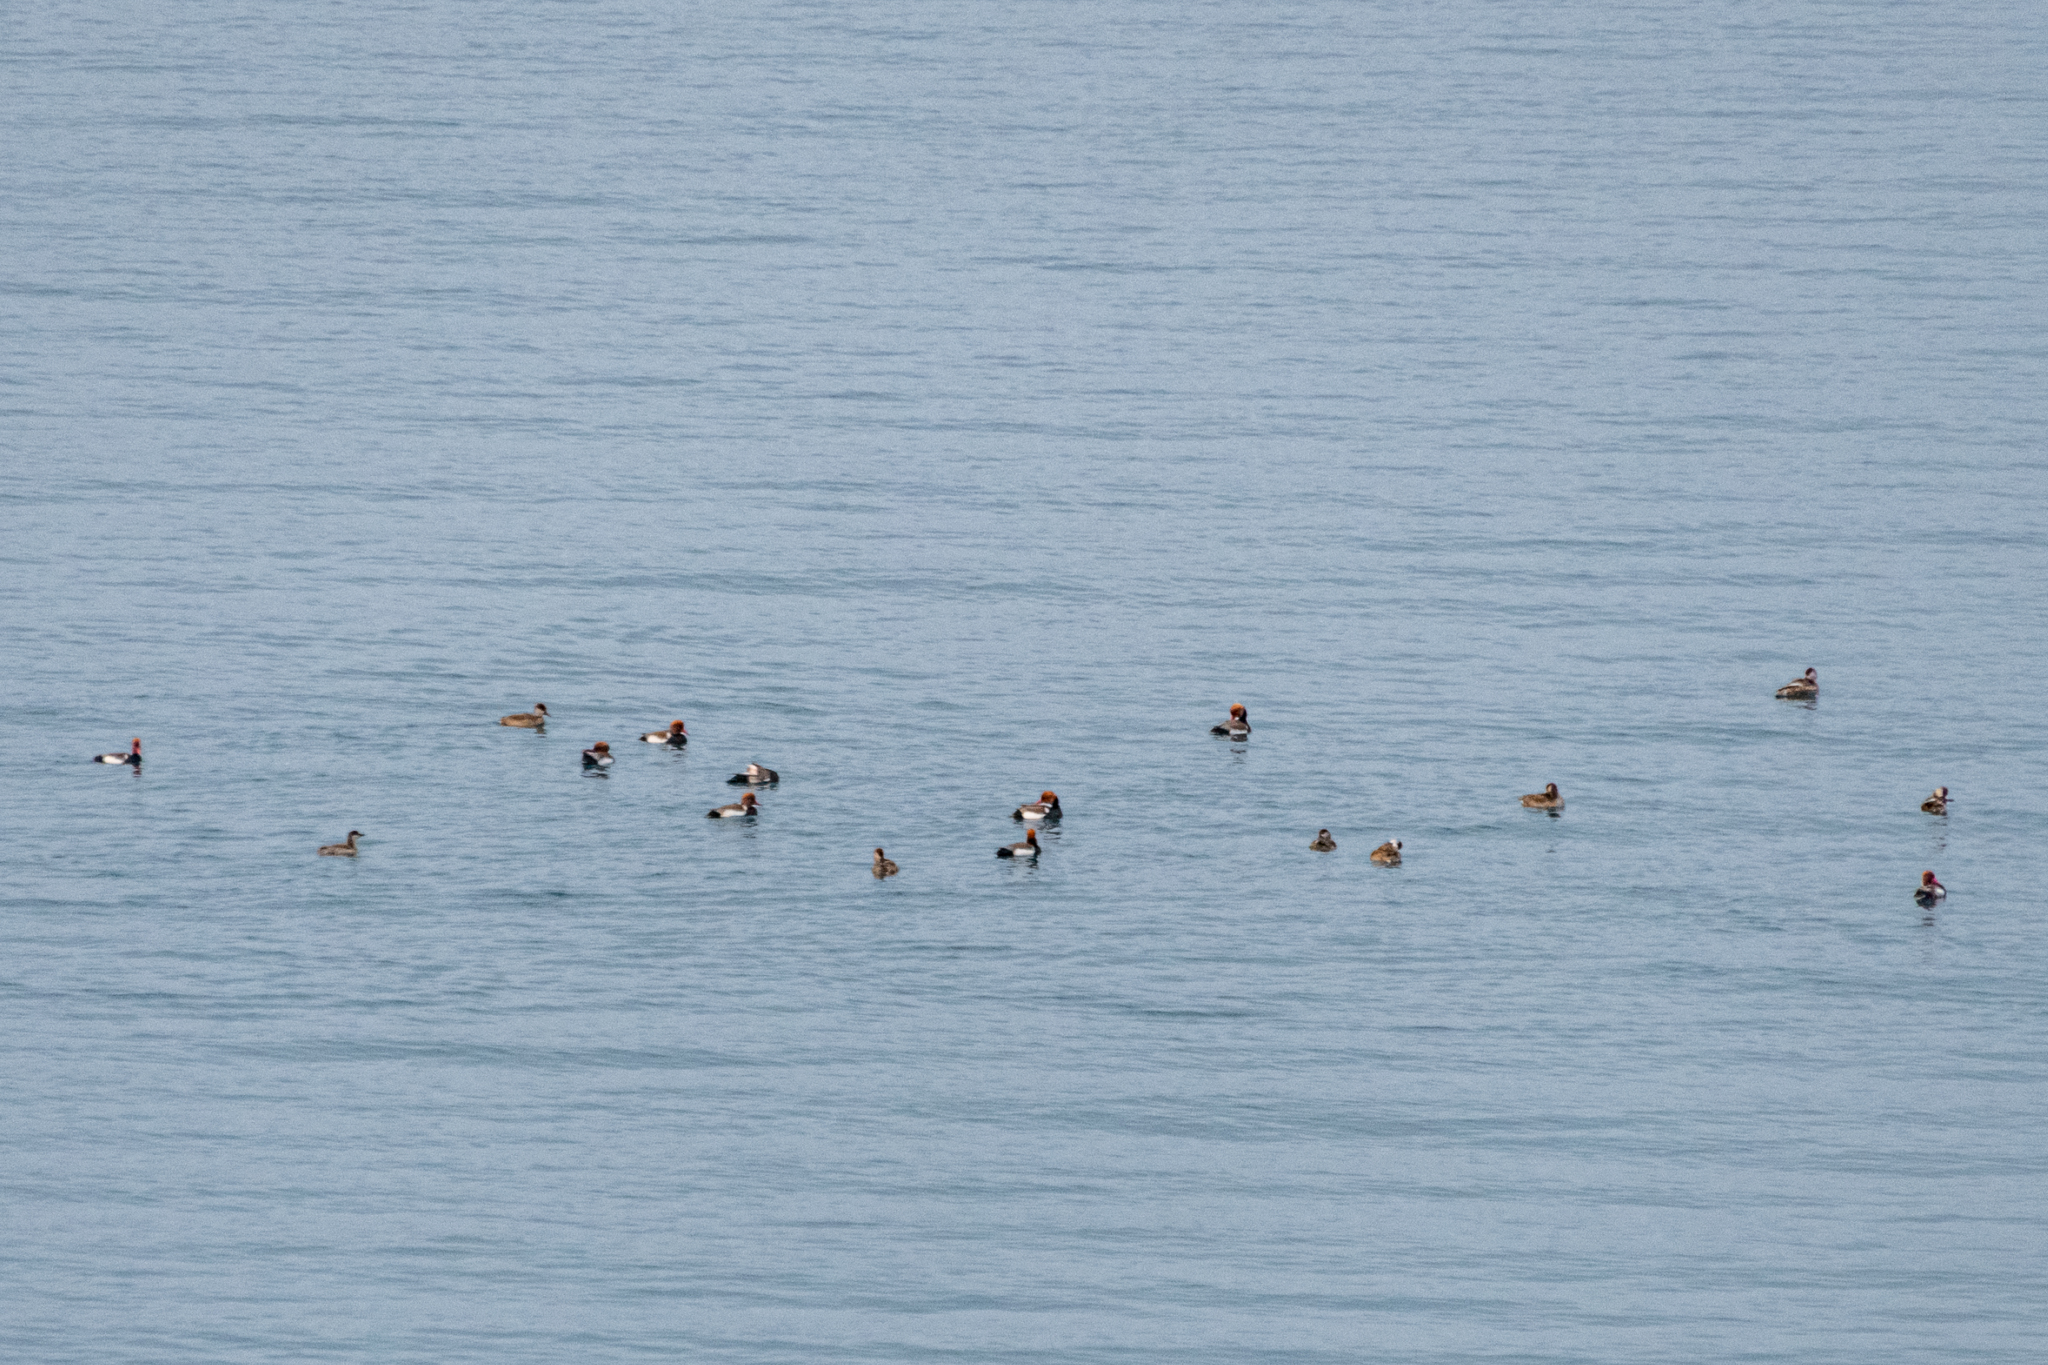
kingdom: Animalia
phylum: Chordata
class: Aves
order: Anseriformes
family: Anatidae
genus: Netta
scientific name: Netta rufina
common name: Red-crested pochard
